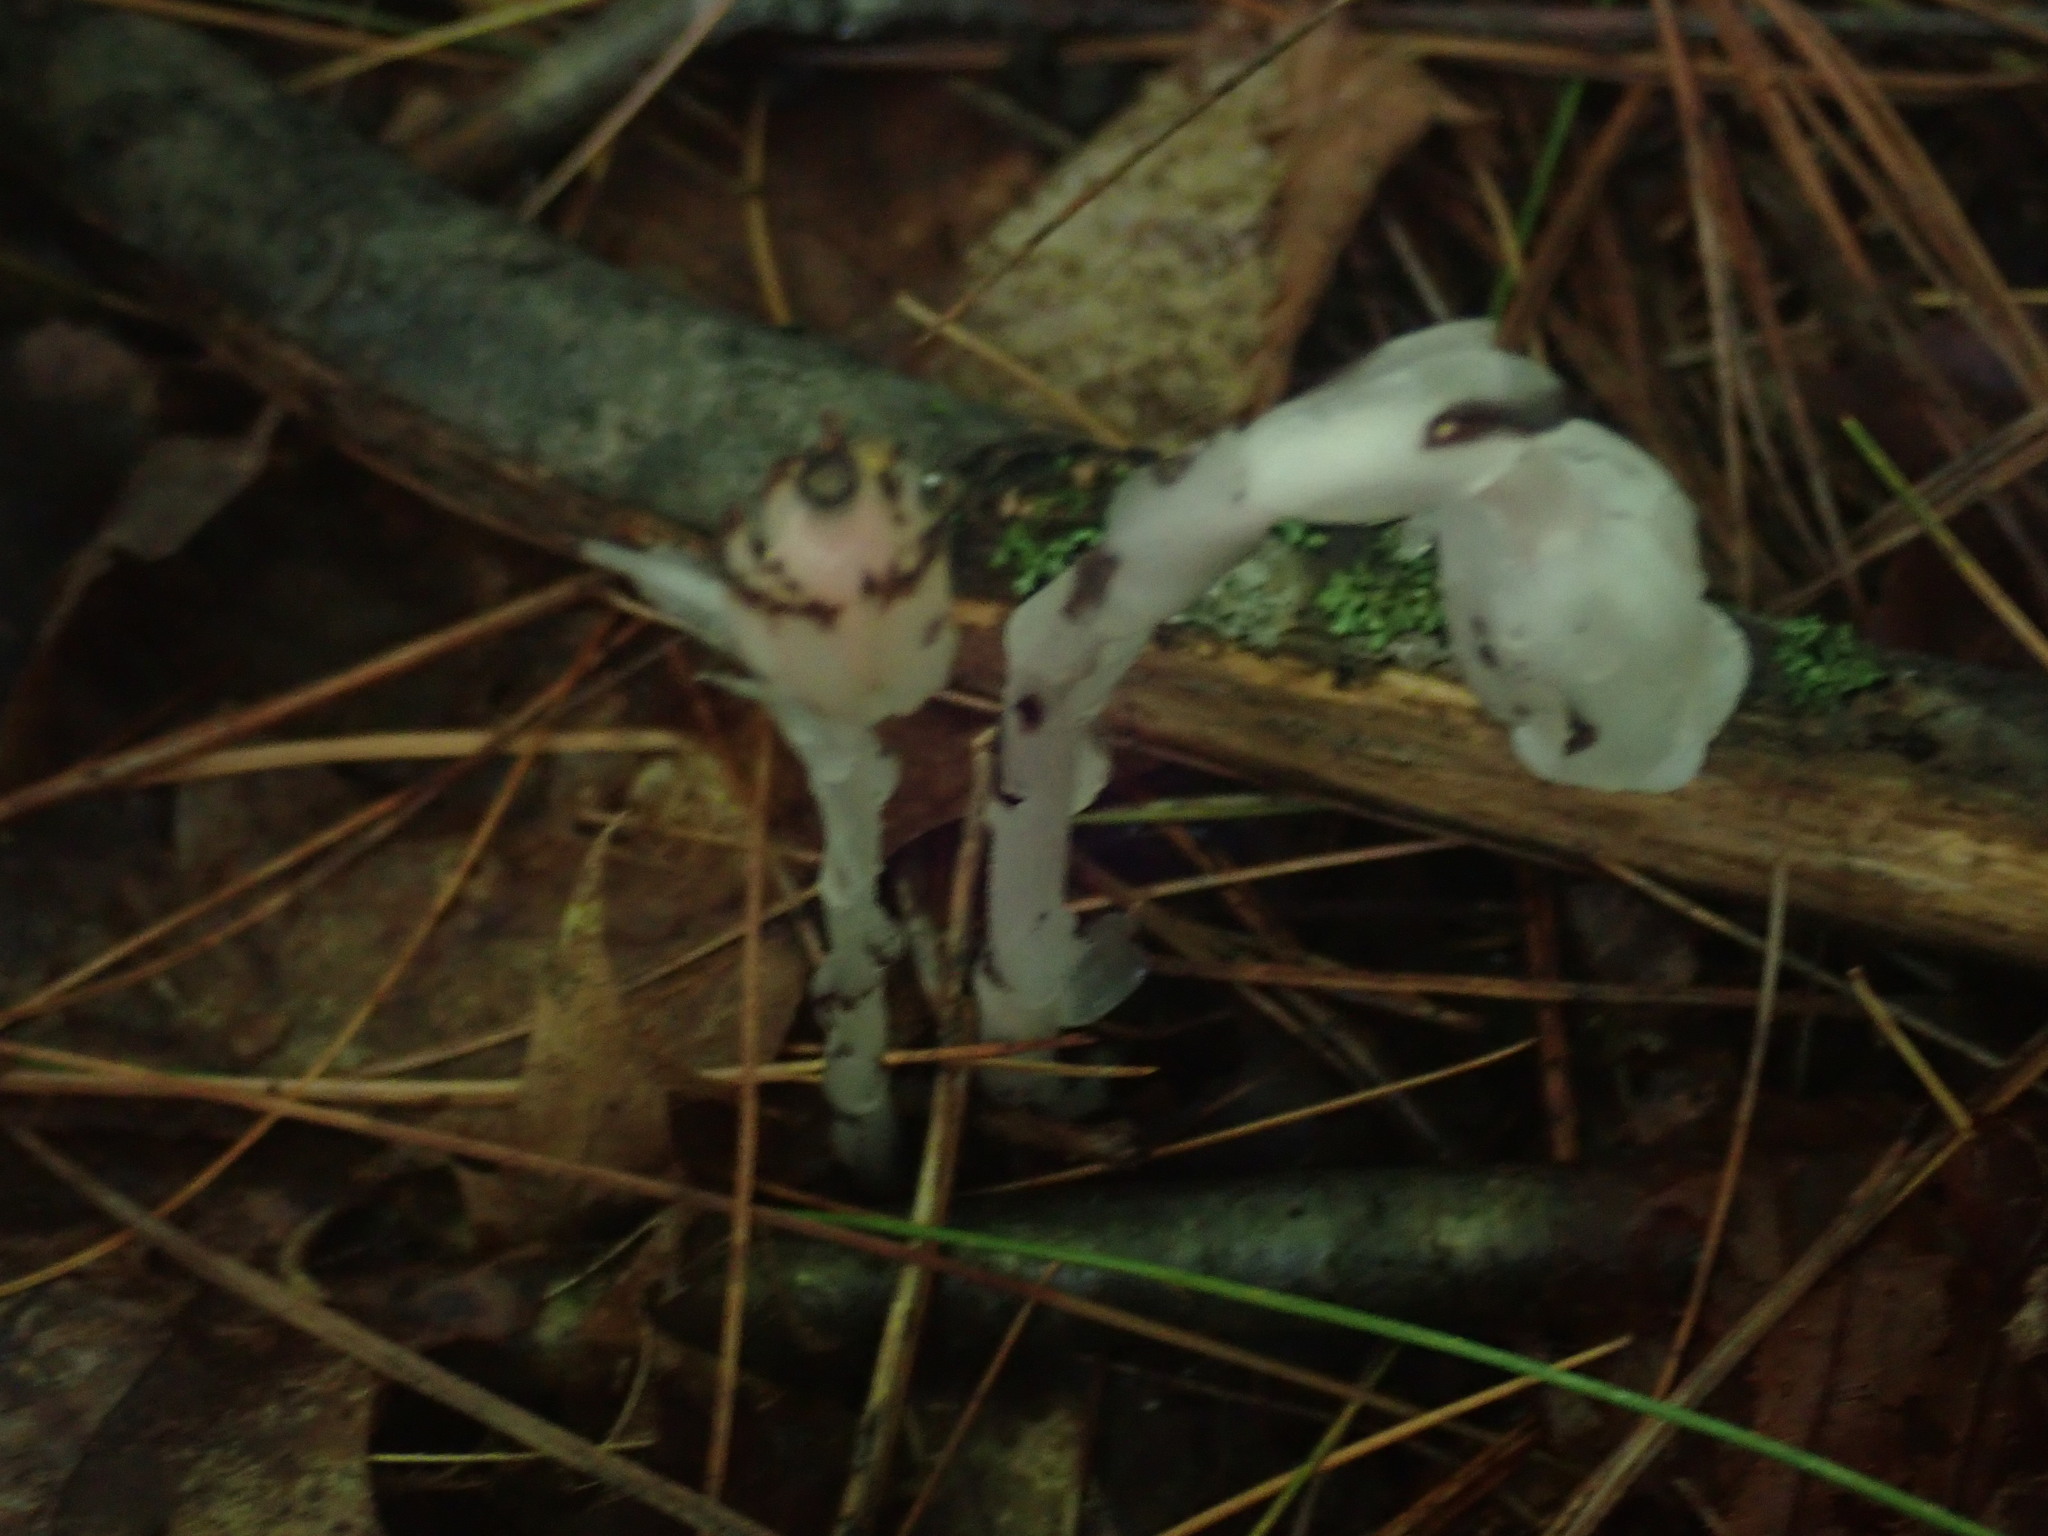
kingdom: Plantae
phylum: Tracheophyta
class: Magnoliopsida
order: Ericales
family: Ericaceae
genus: Monotropa
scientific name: Monotropa uniflora
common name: Convulsion root
